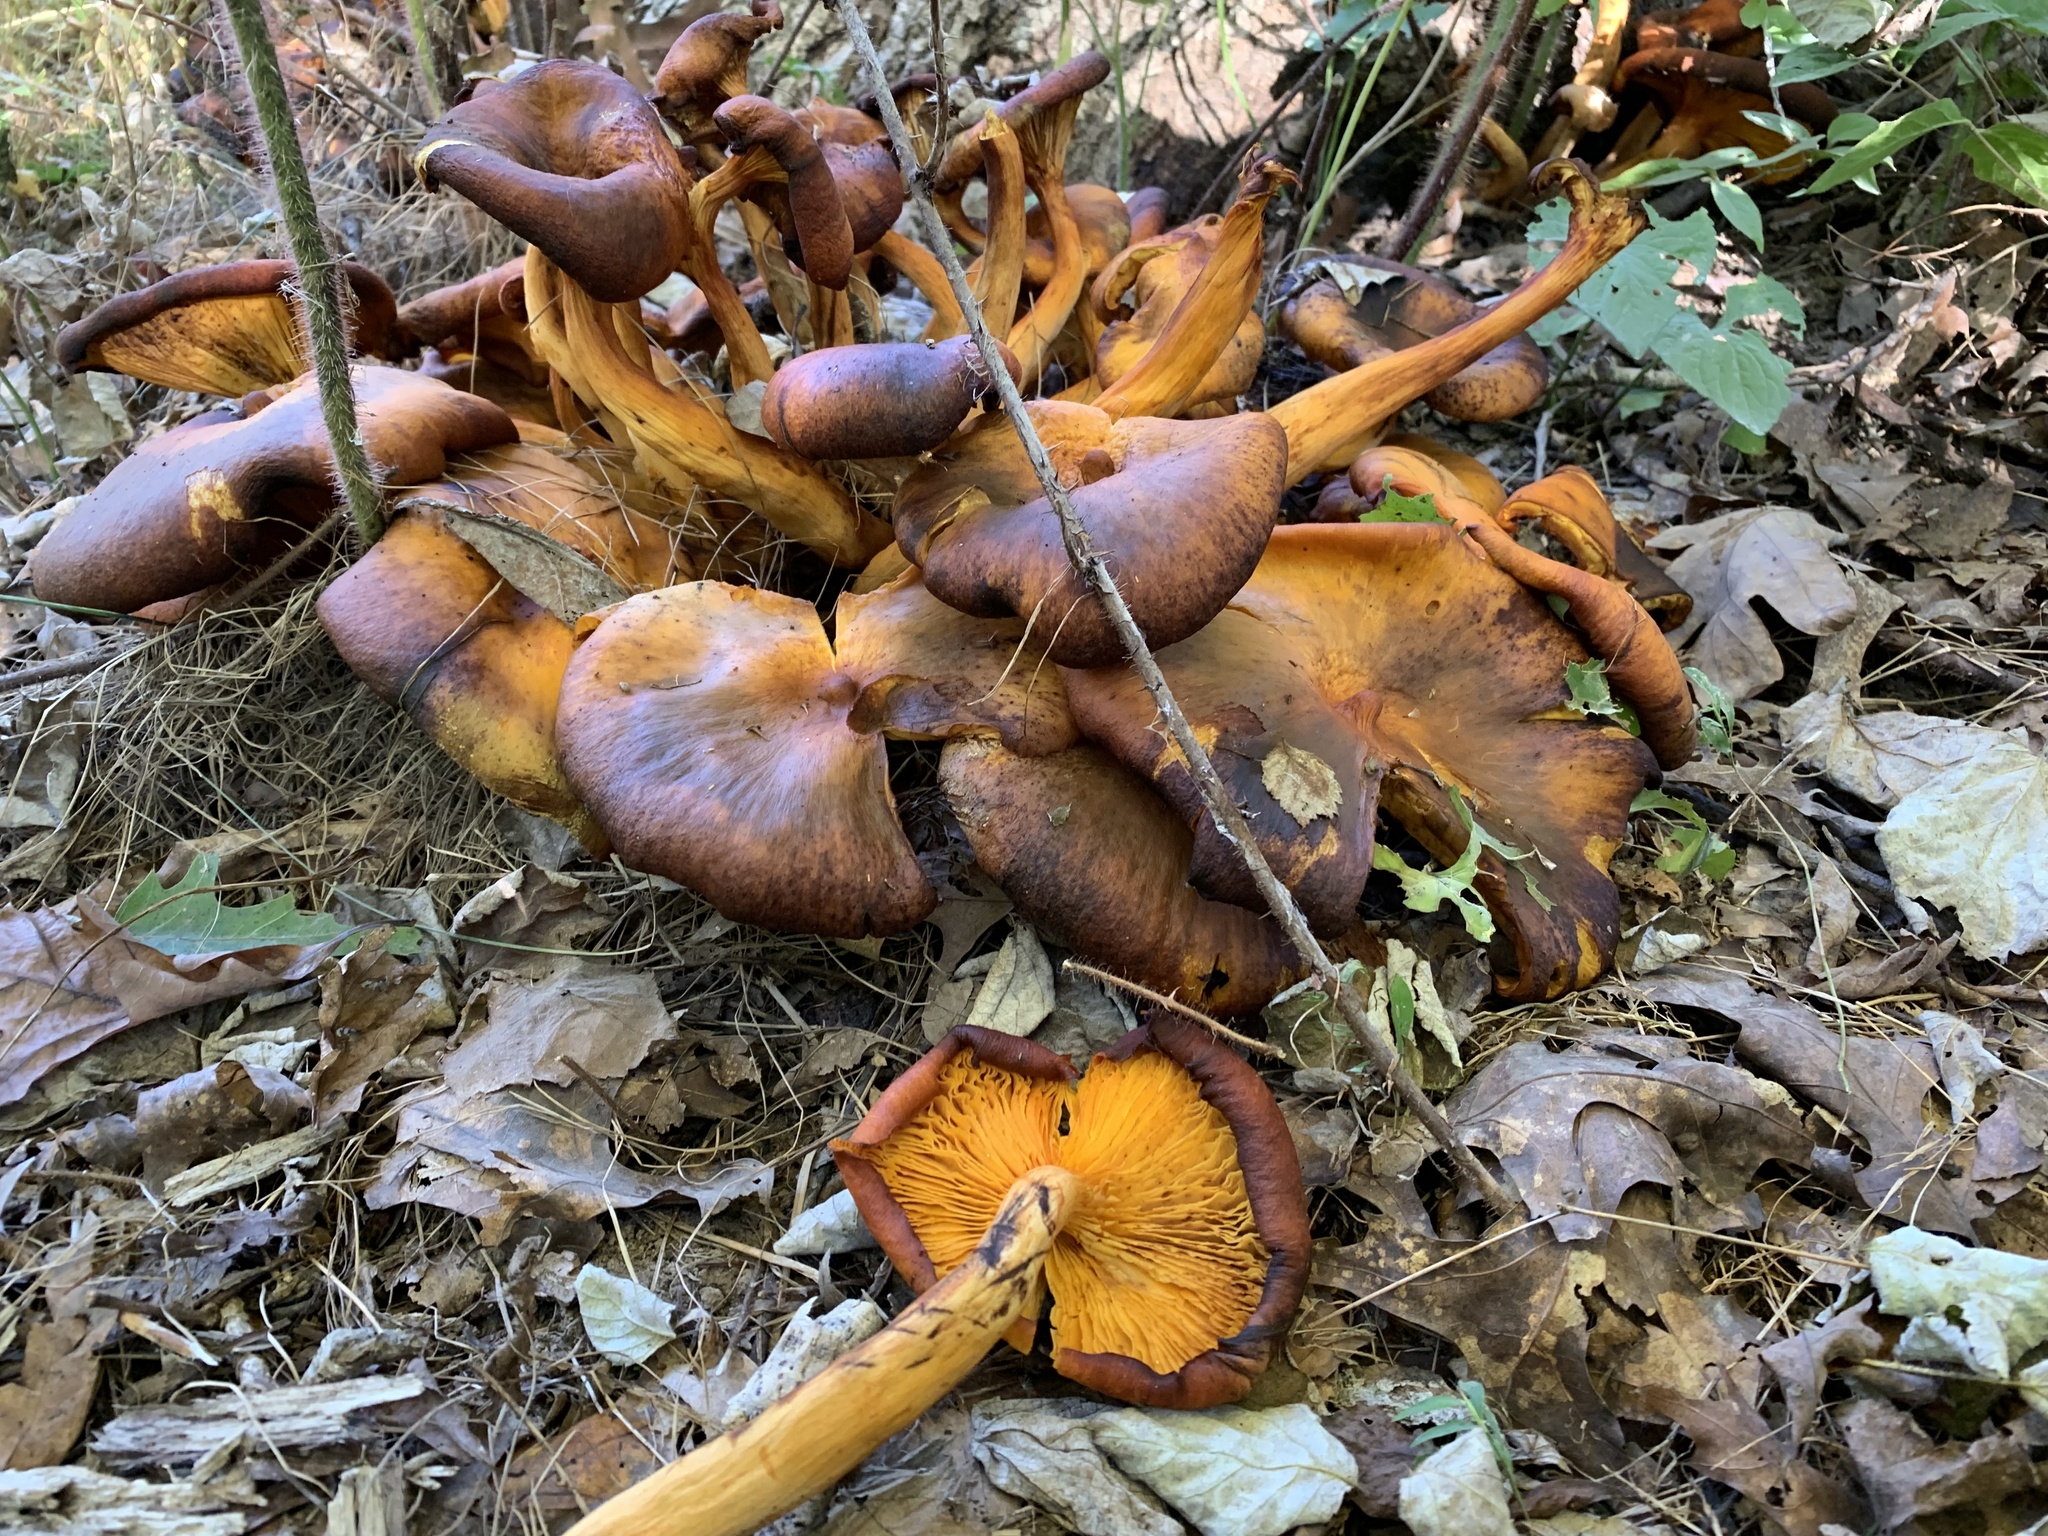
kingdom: Fungi
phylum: Basidiomycota
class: Agaricomycetes
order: Agaricales
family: Omphalotaceae
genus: Omphalotus
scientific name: Omphalotus illudens
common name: Jack o lantern
